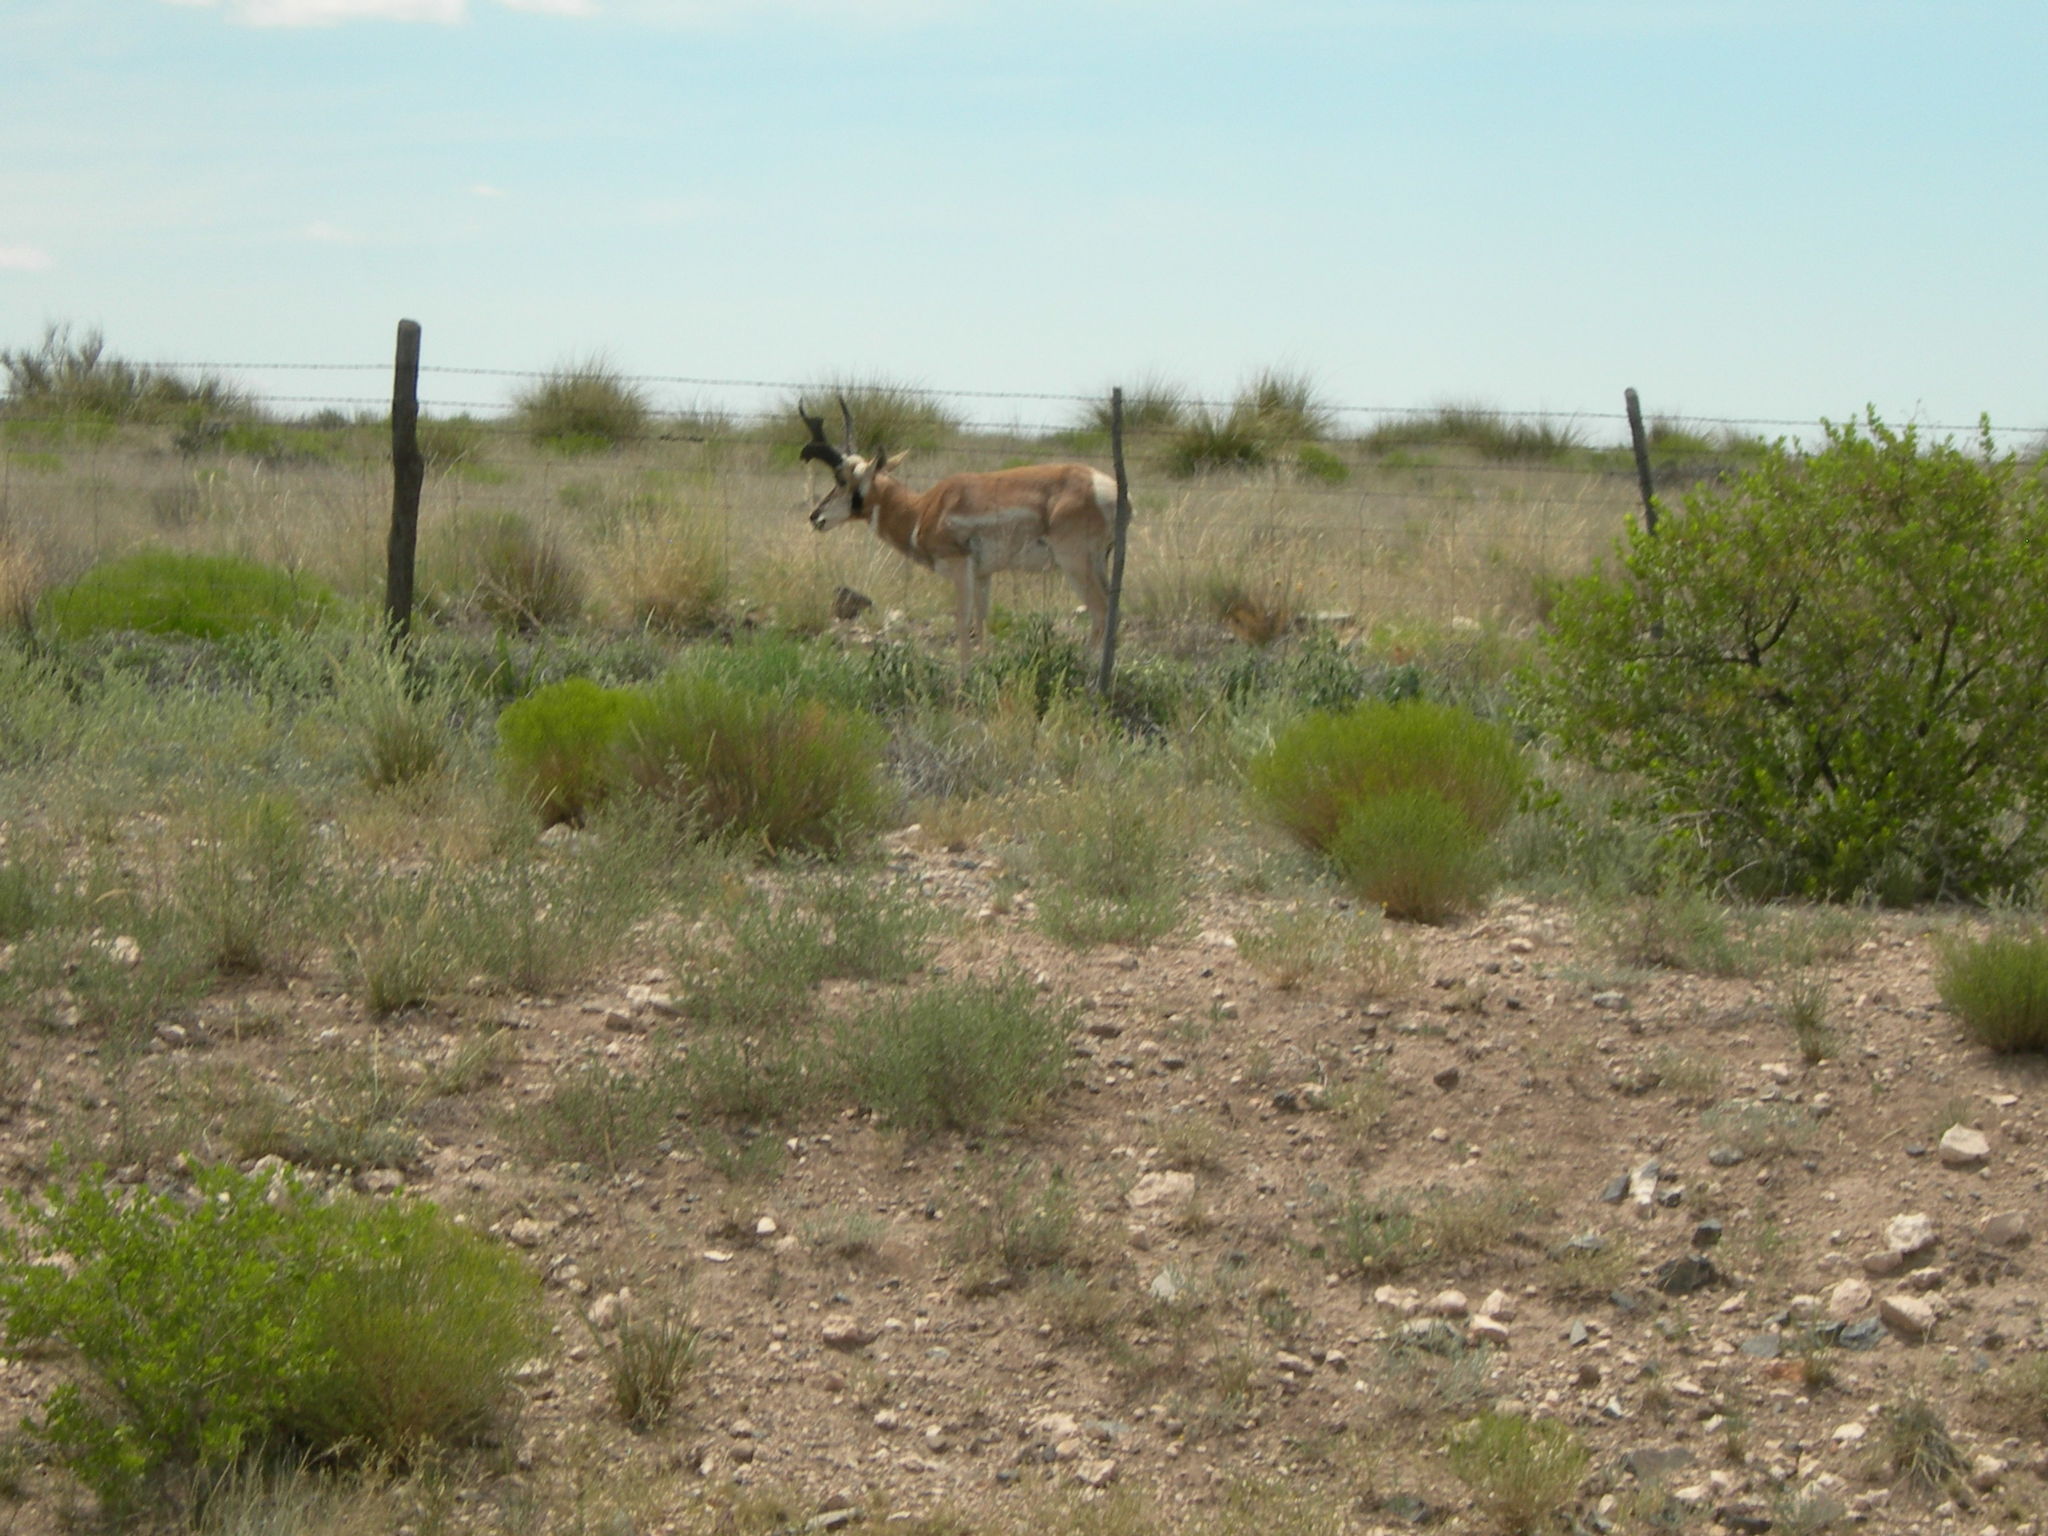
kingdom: Animalia
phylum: Chordata
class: Mammalia
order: Artiodactyla
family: Antilocapridae
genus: Antilocapra
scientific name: Antilocapra americana
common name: Pronghorn
